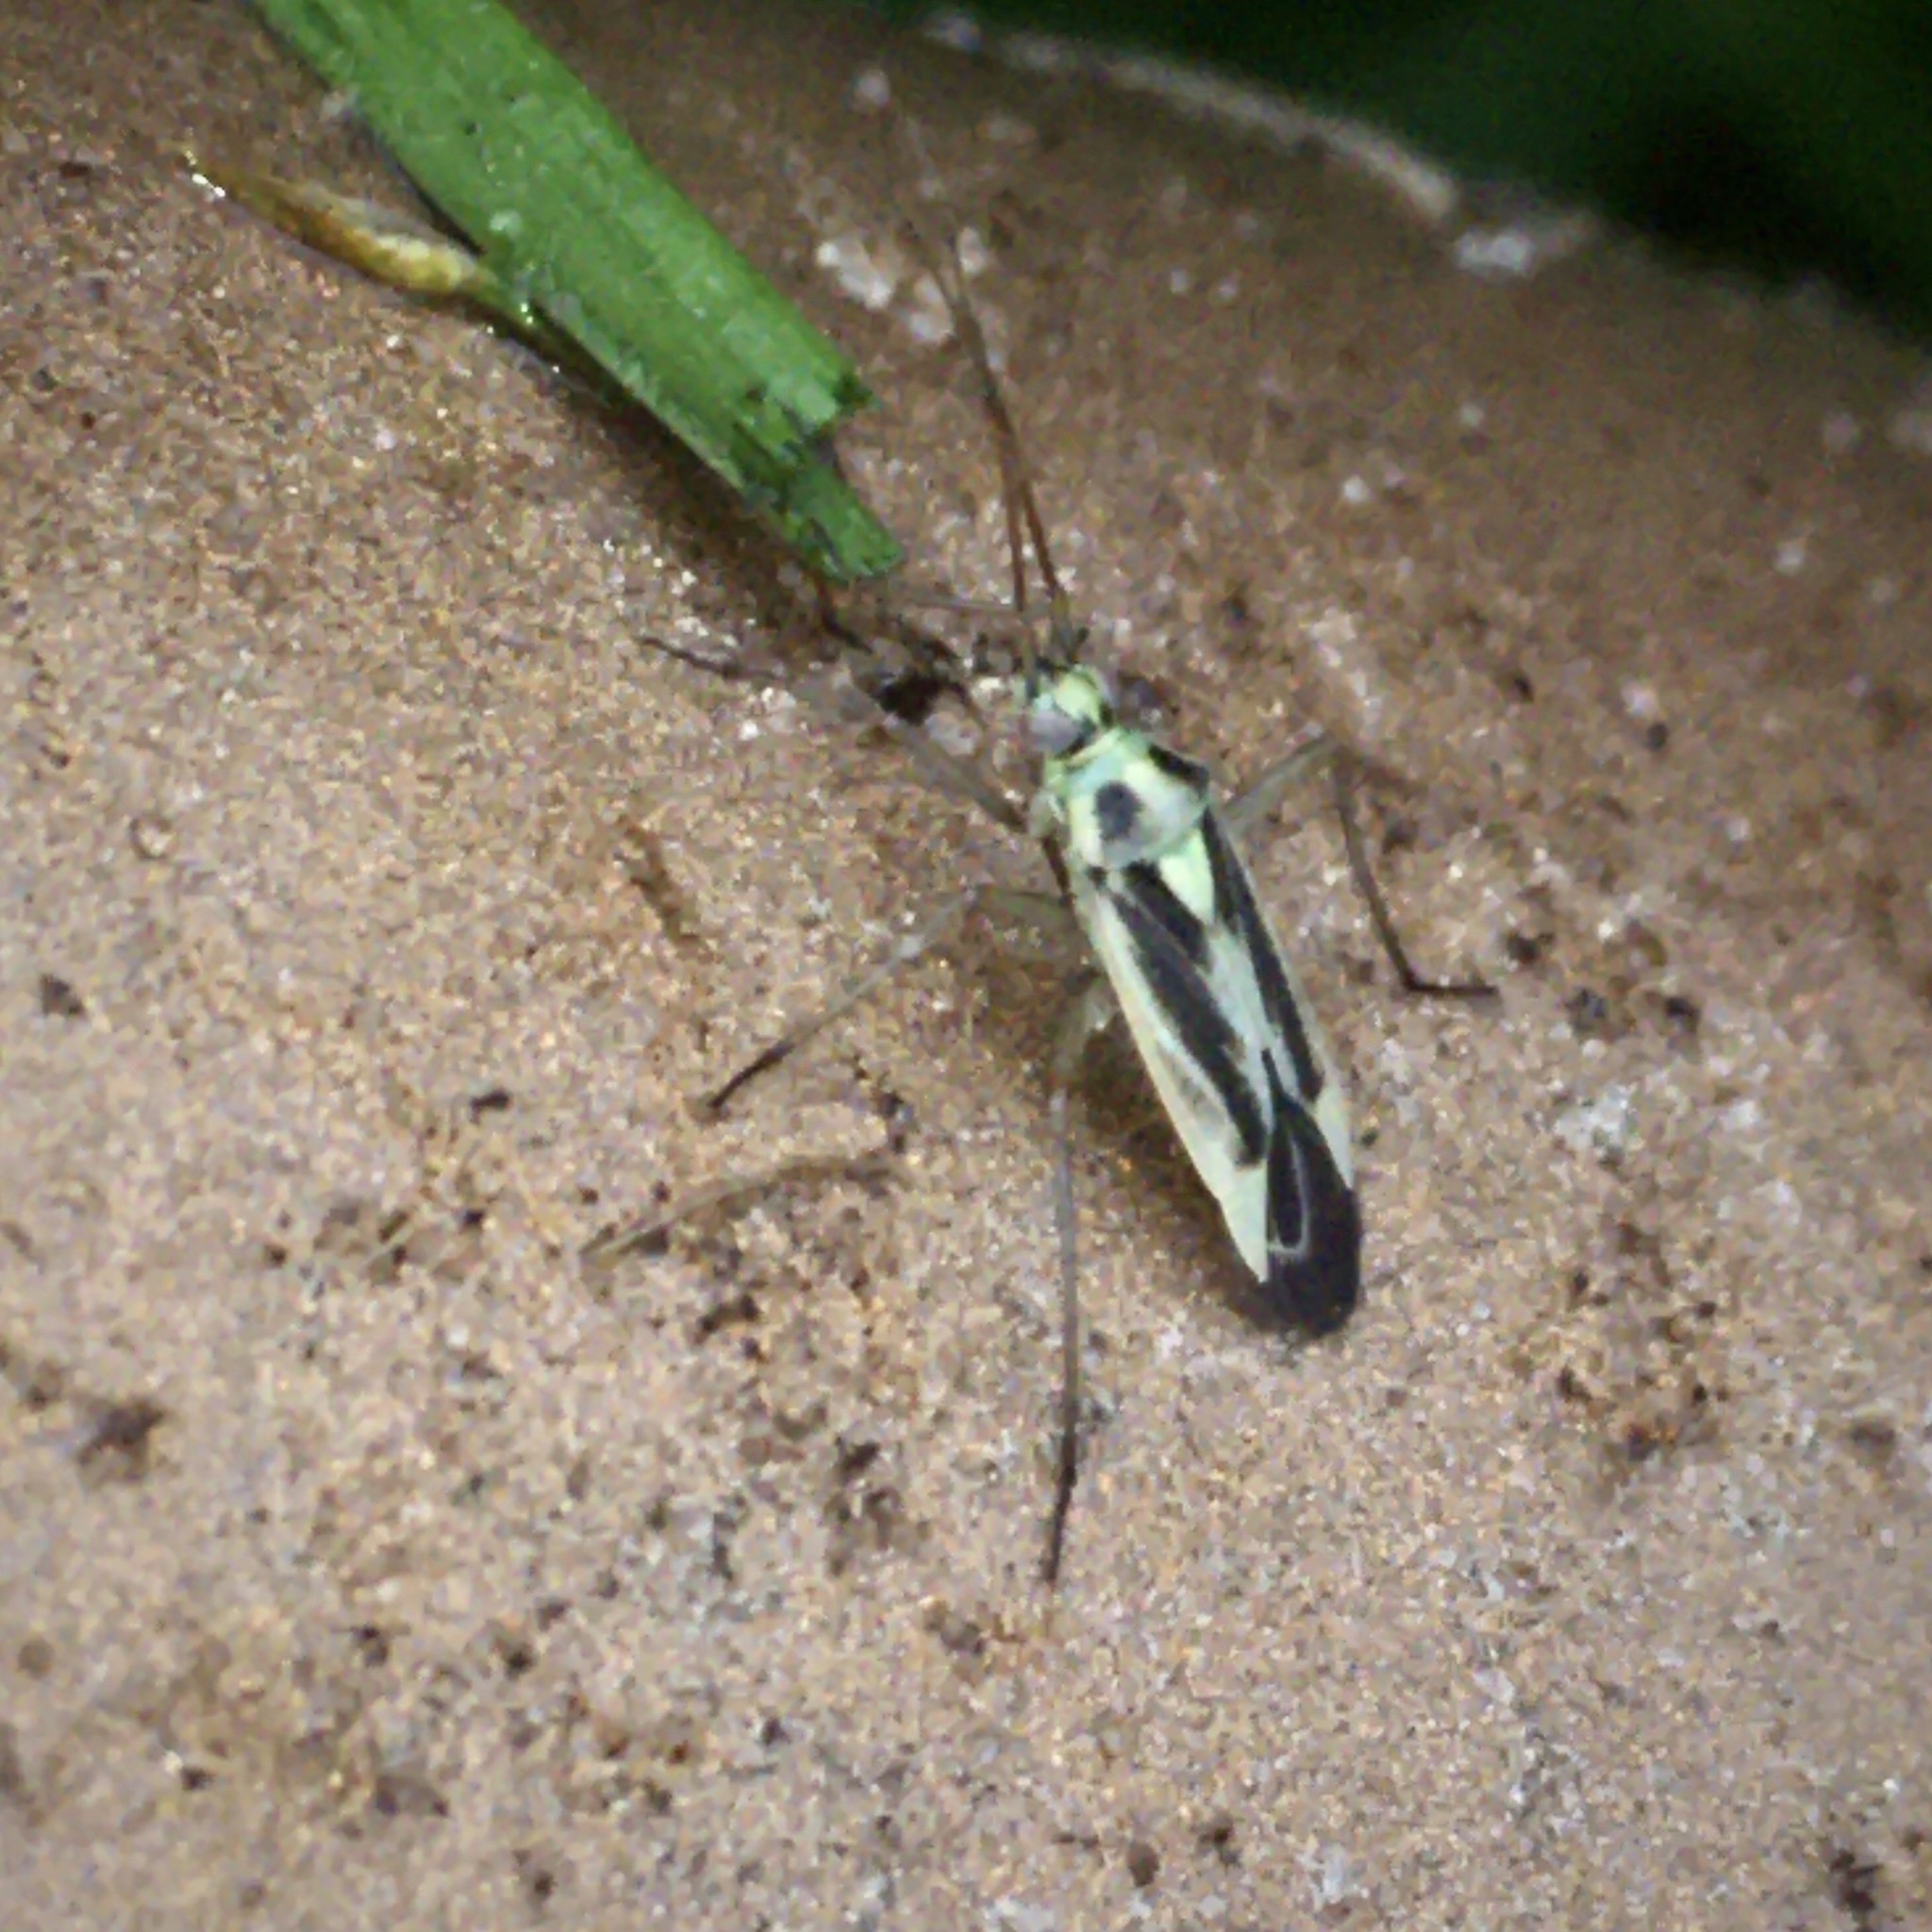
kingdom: Animalia
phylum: Arthropoda
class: Insecta
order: Hemiptera
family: Miridae
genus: Stenotus
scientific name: Stenotus binotatus
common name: Plant bug
